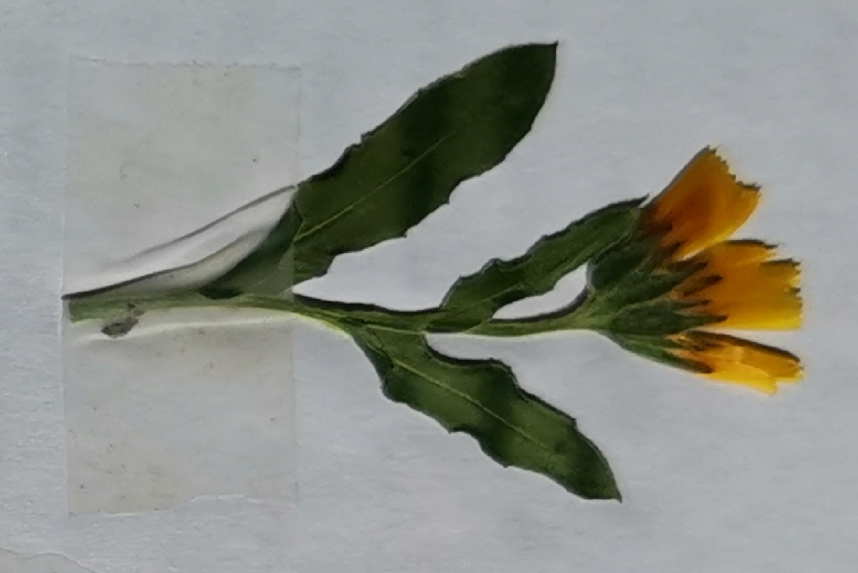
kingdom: Plantae
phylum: Tracheophyta
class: Magnoliopsida
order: Asterales
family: Asteraceae
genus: Calendula
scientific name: Calendula arvensis
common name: Field marigold
